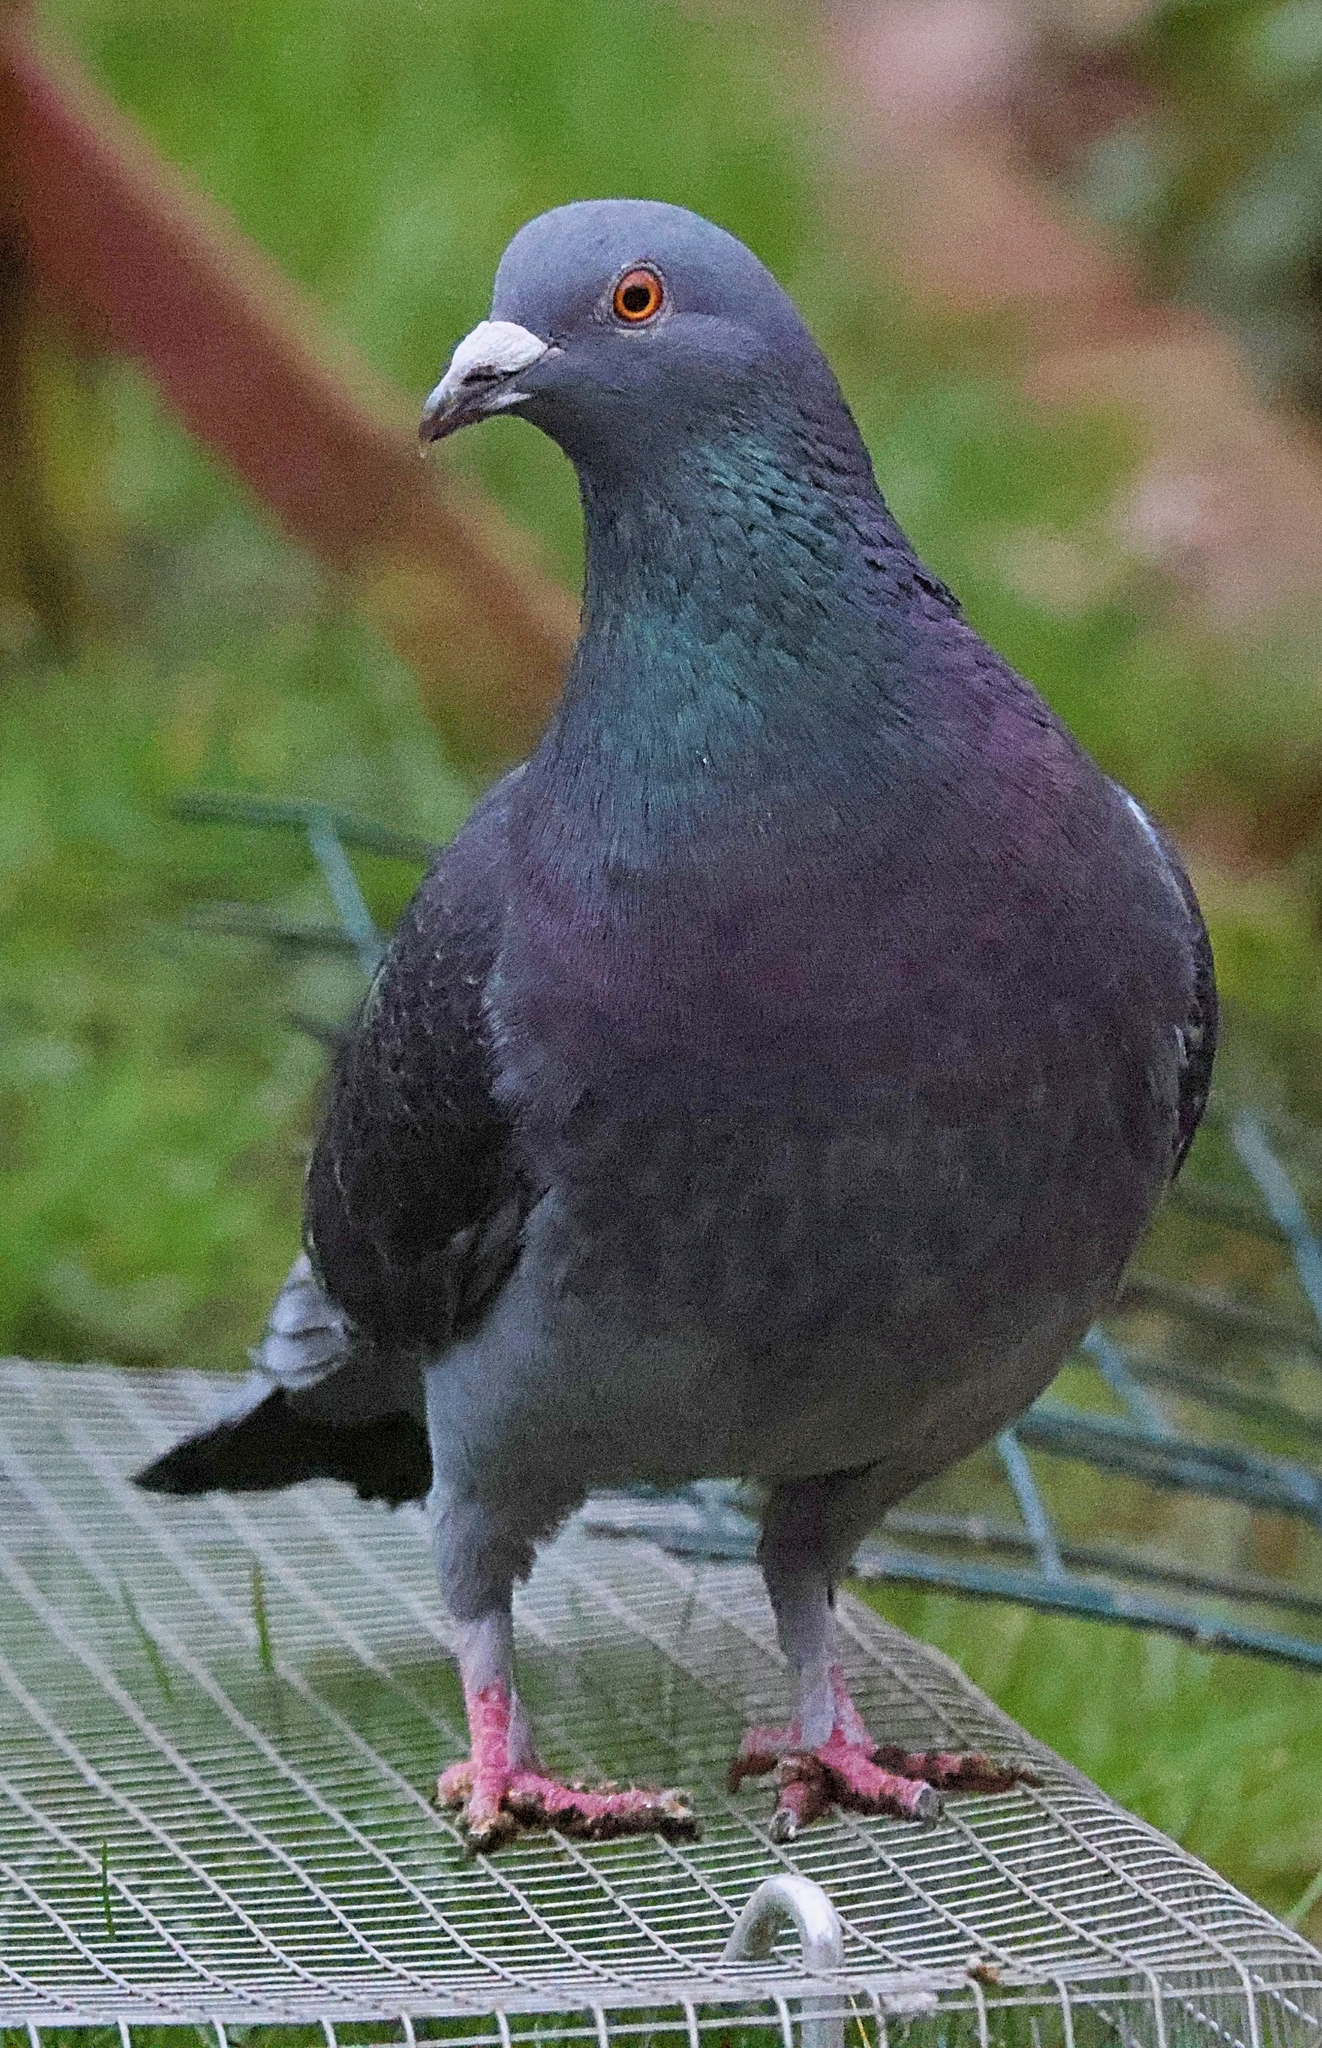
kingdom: Animalia
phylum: Chordata
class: Aves
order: Columbiformes
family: Columbidae
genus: Columba
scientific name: Columba livia
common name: Rock pigeon
